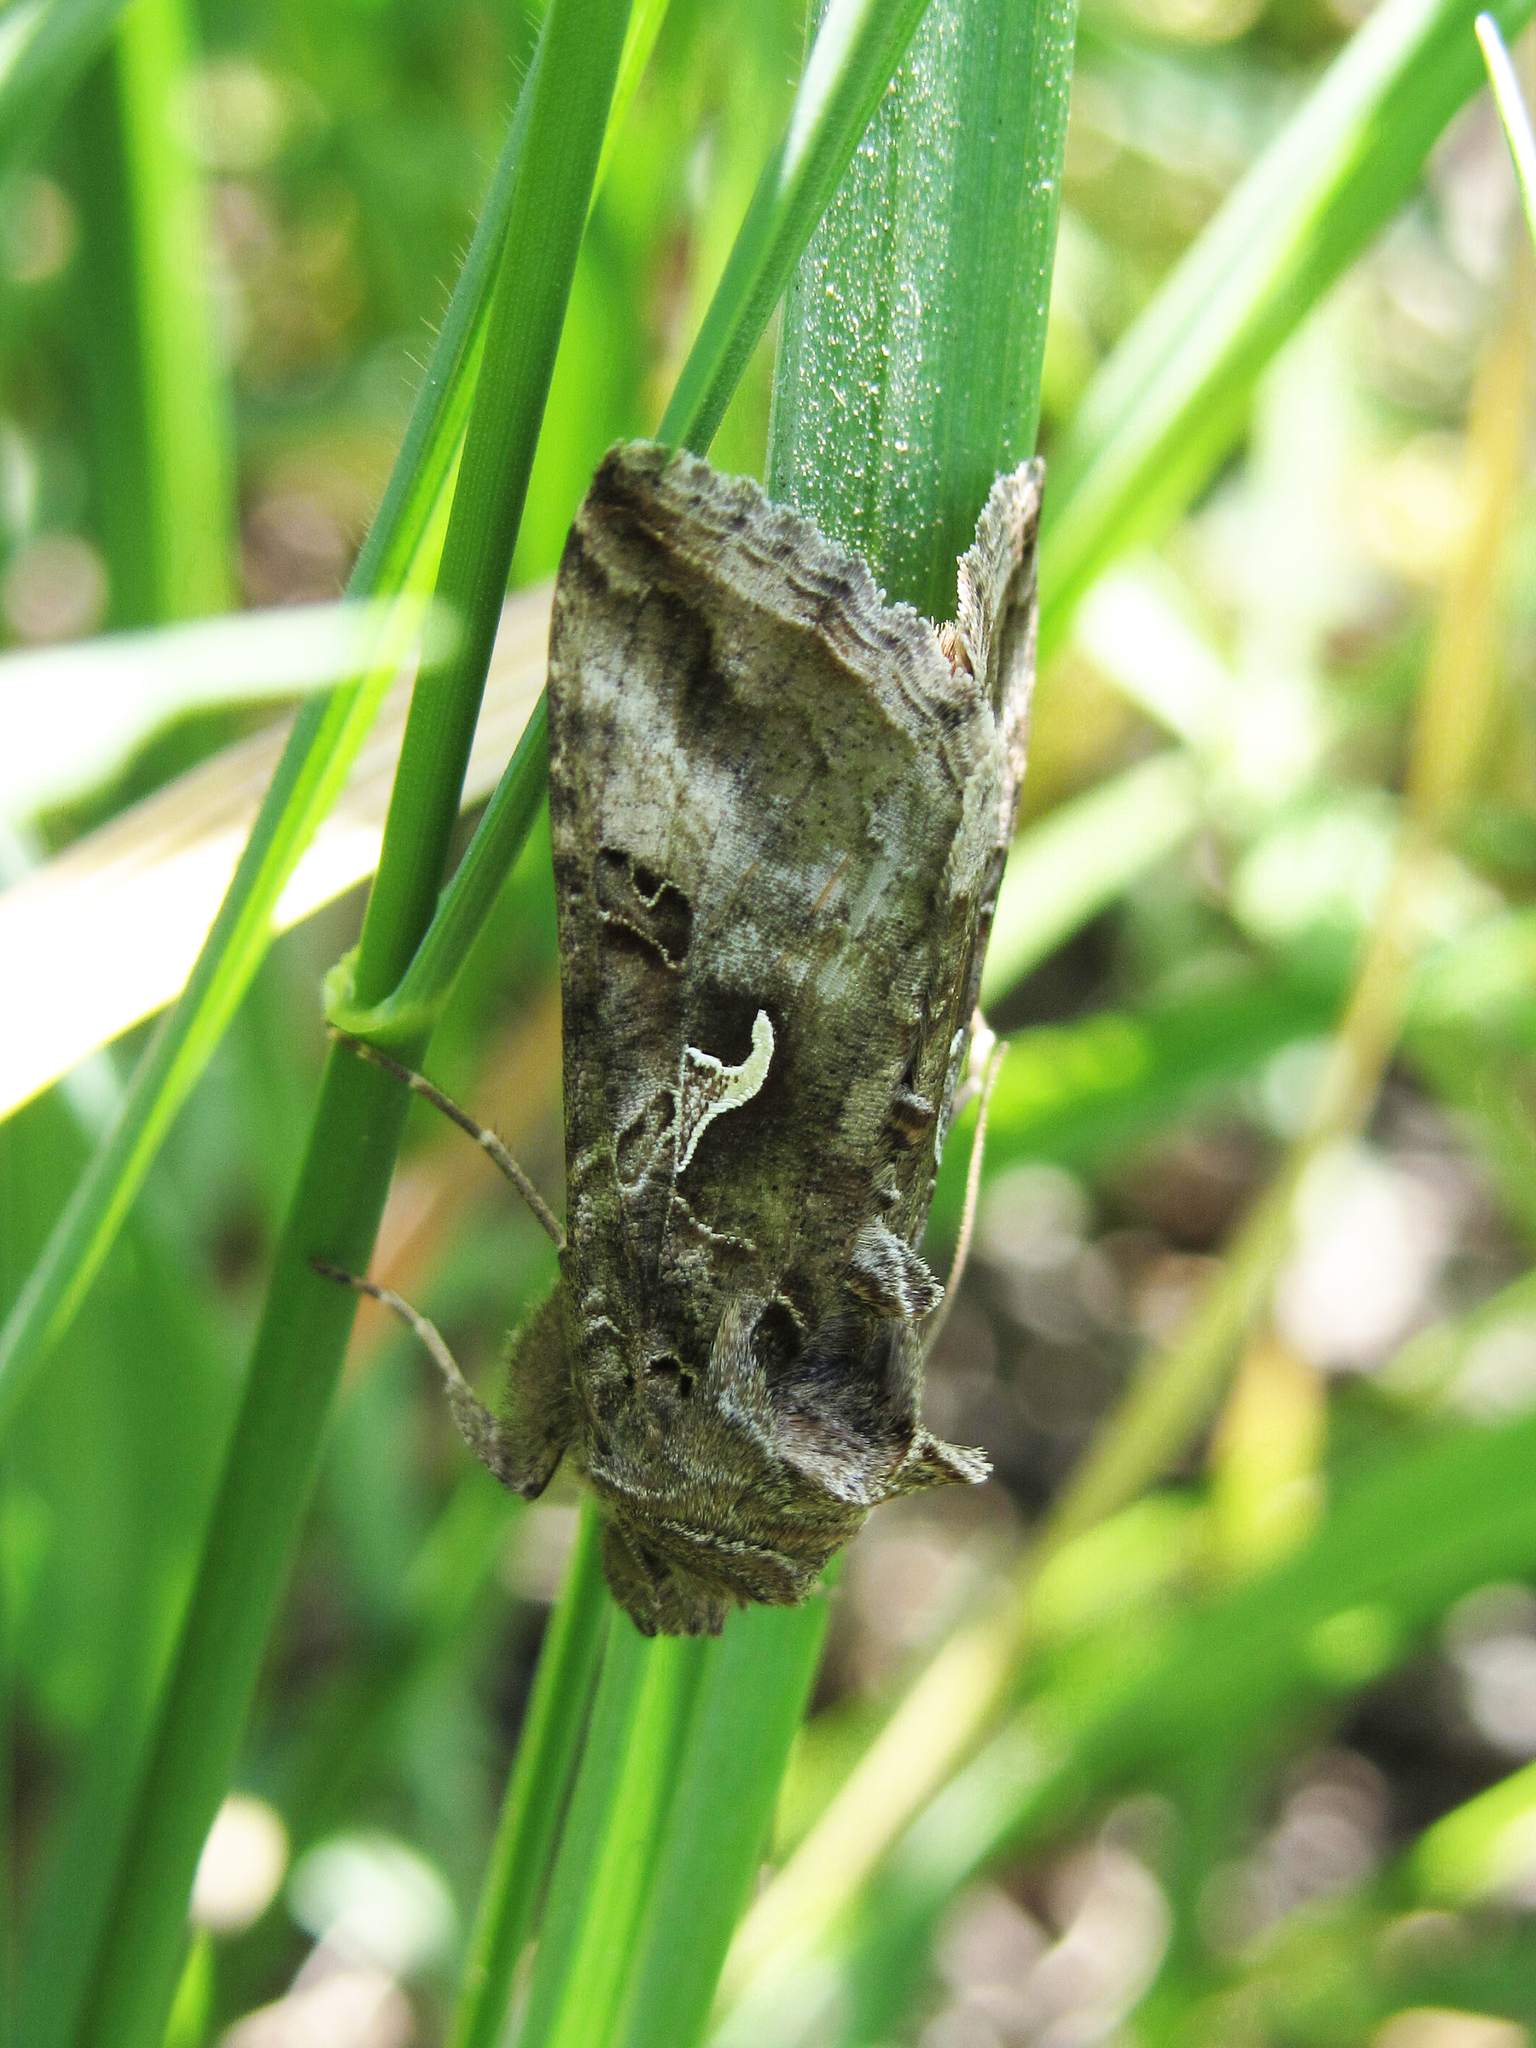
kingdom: Animalia
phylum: Arthropoda
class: Insecta
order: Lepidoptera
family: Noctuidae
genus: Autographa
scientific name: Autographa gamma
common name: Silver y
